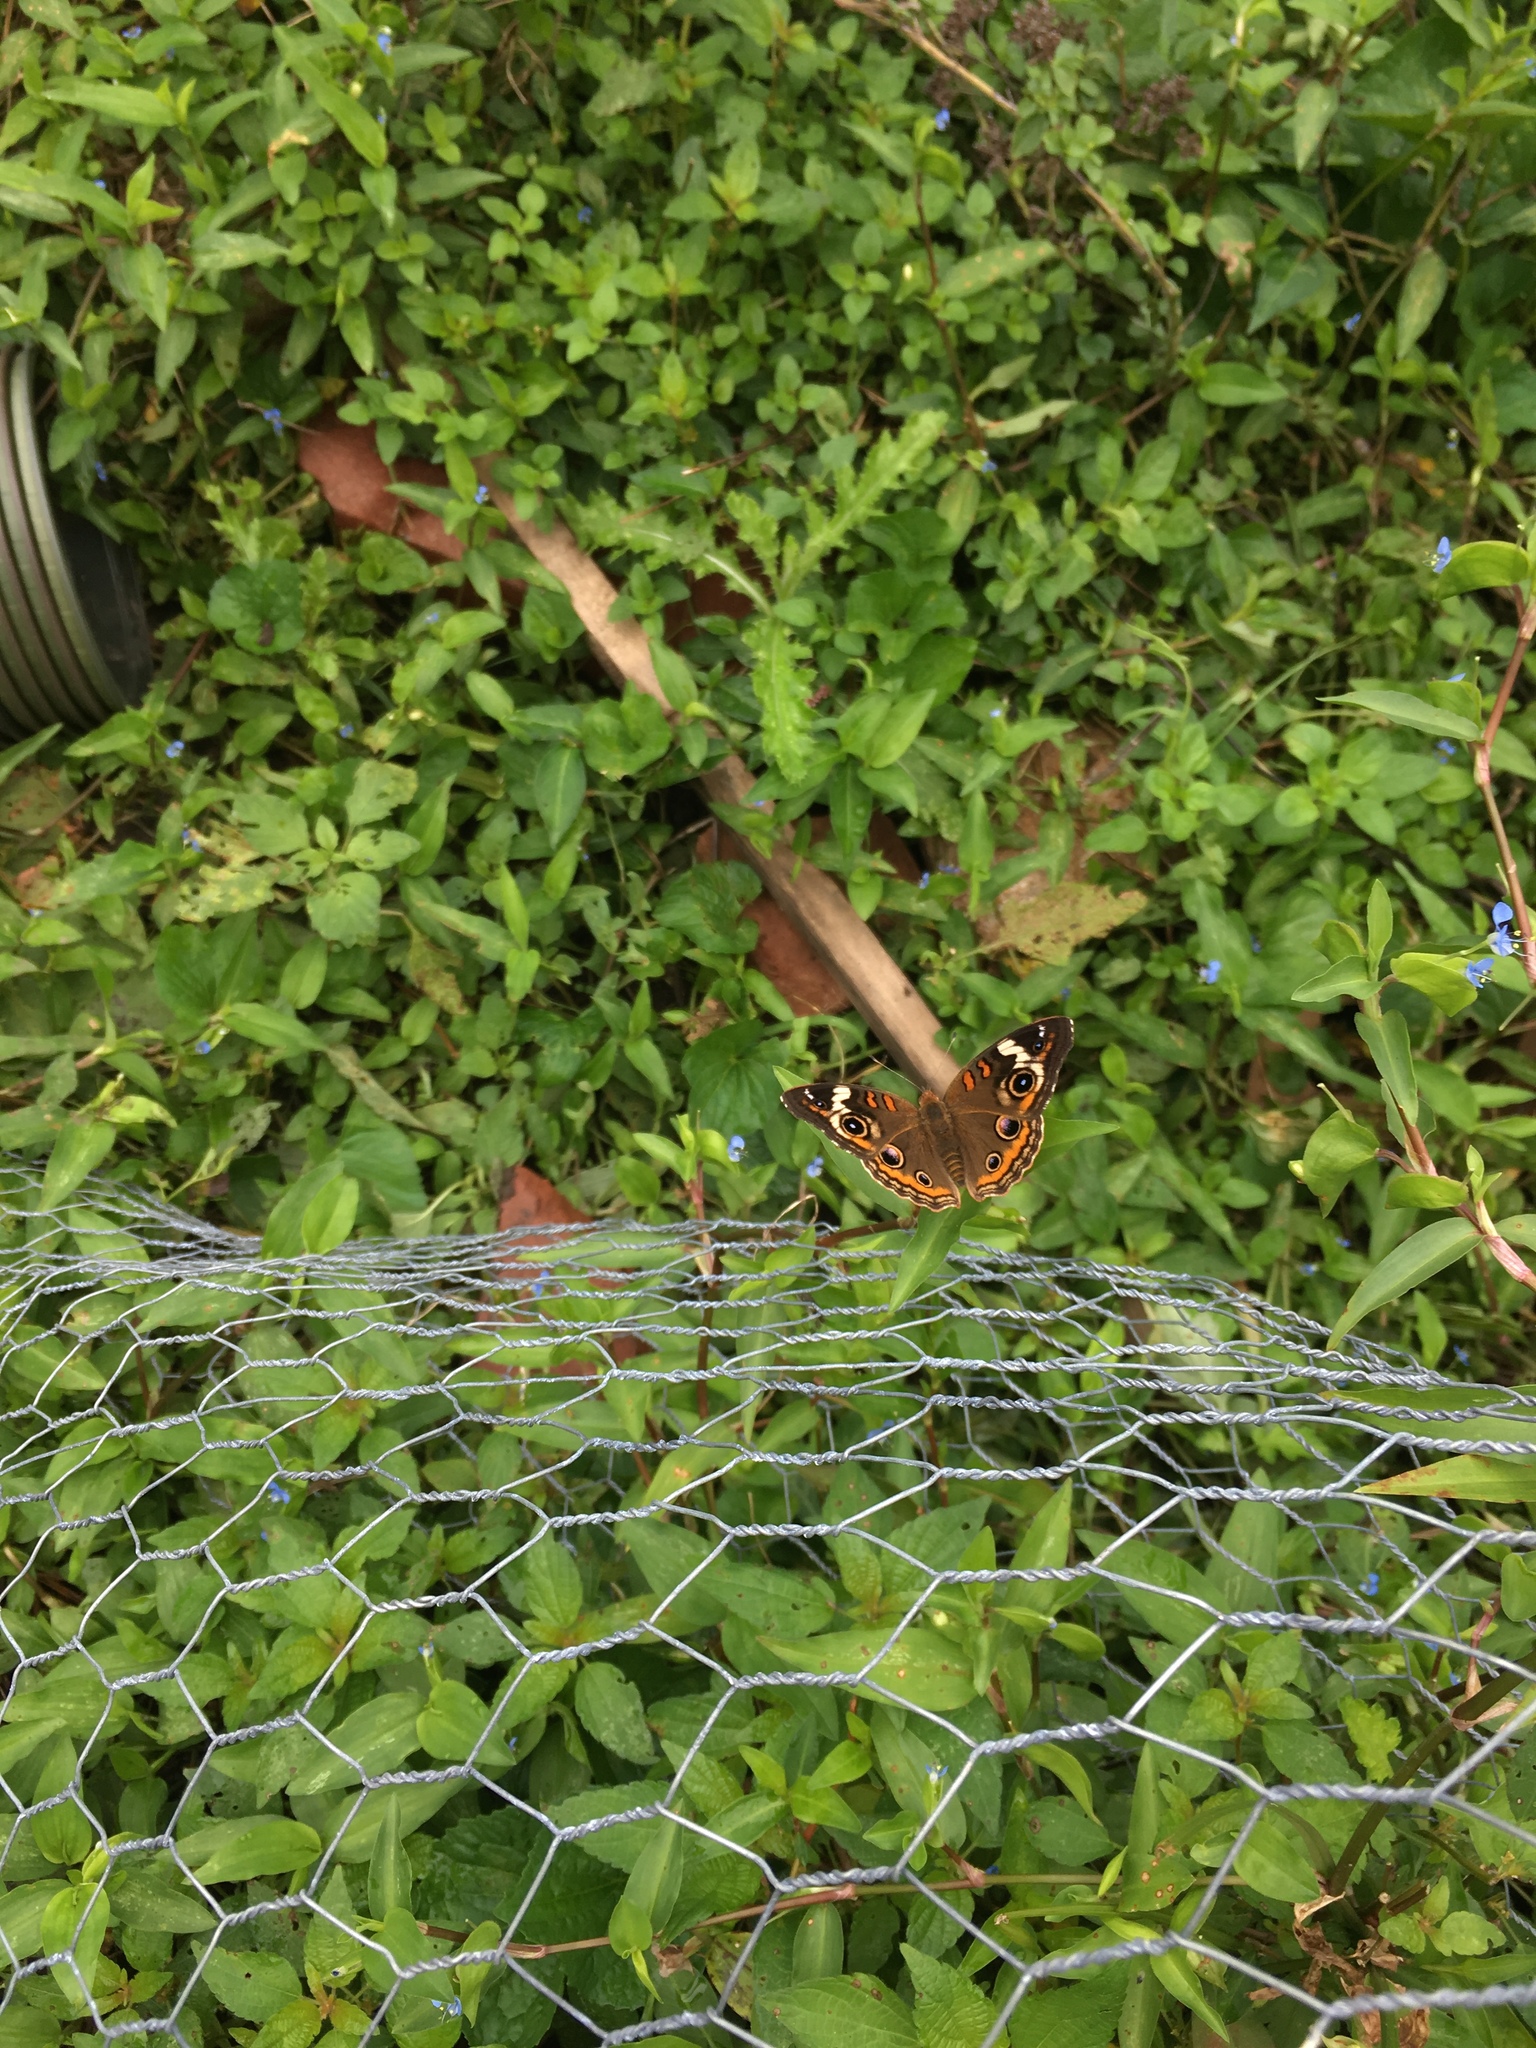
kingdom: Animalia
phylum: Arthropoda
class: Insecta
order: Lepidoptera
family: Nymphalidae
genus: Junonia
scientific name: Junonia coenia
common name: Common buckeye
